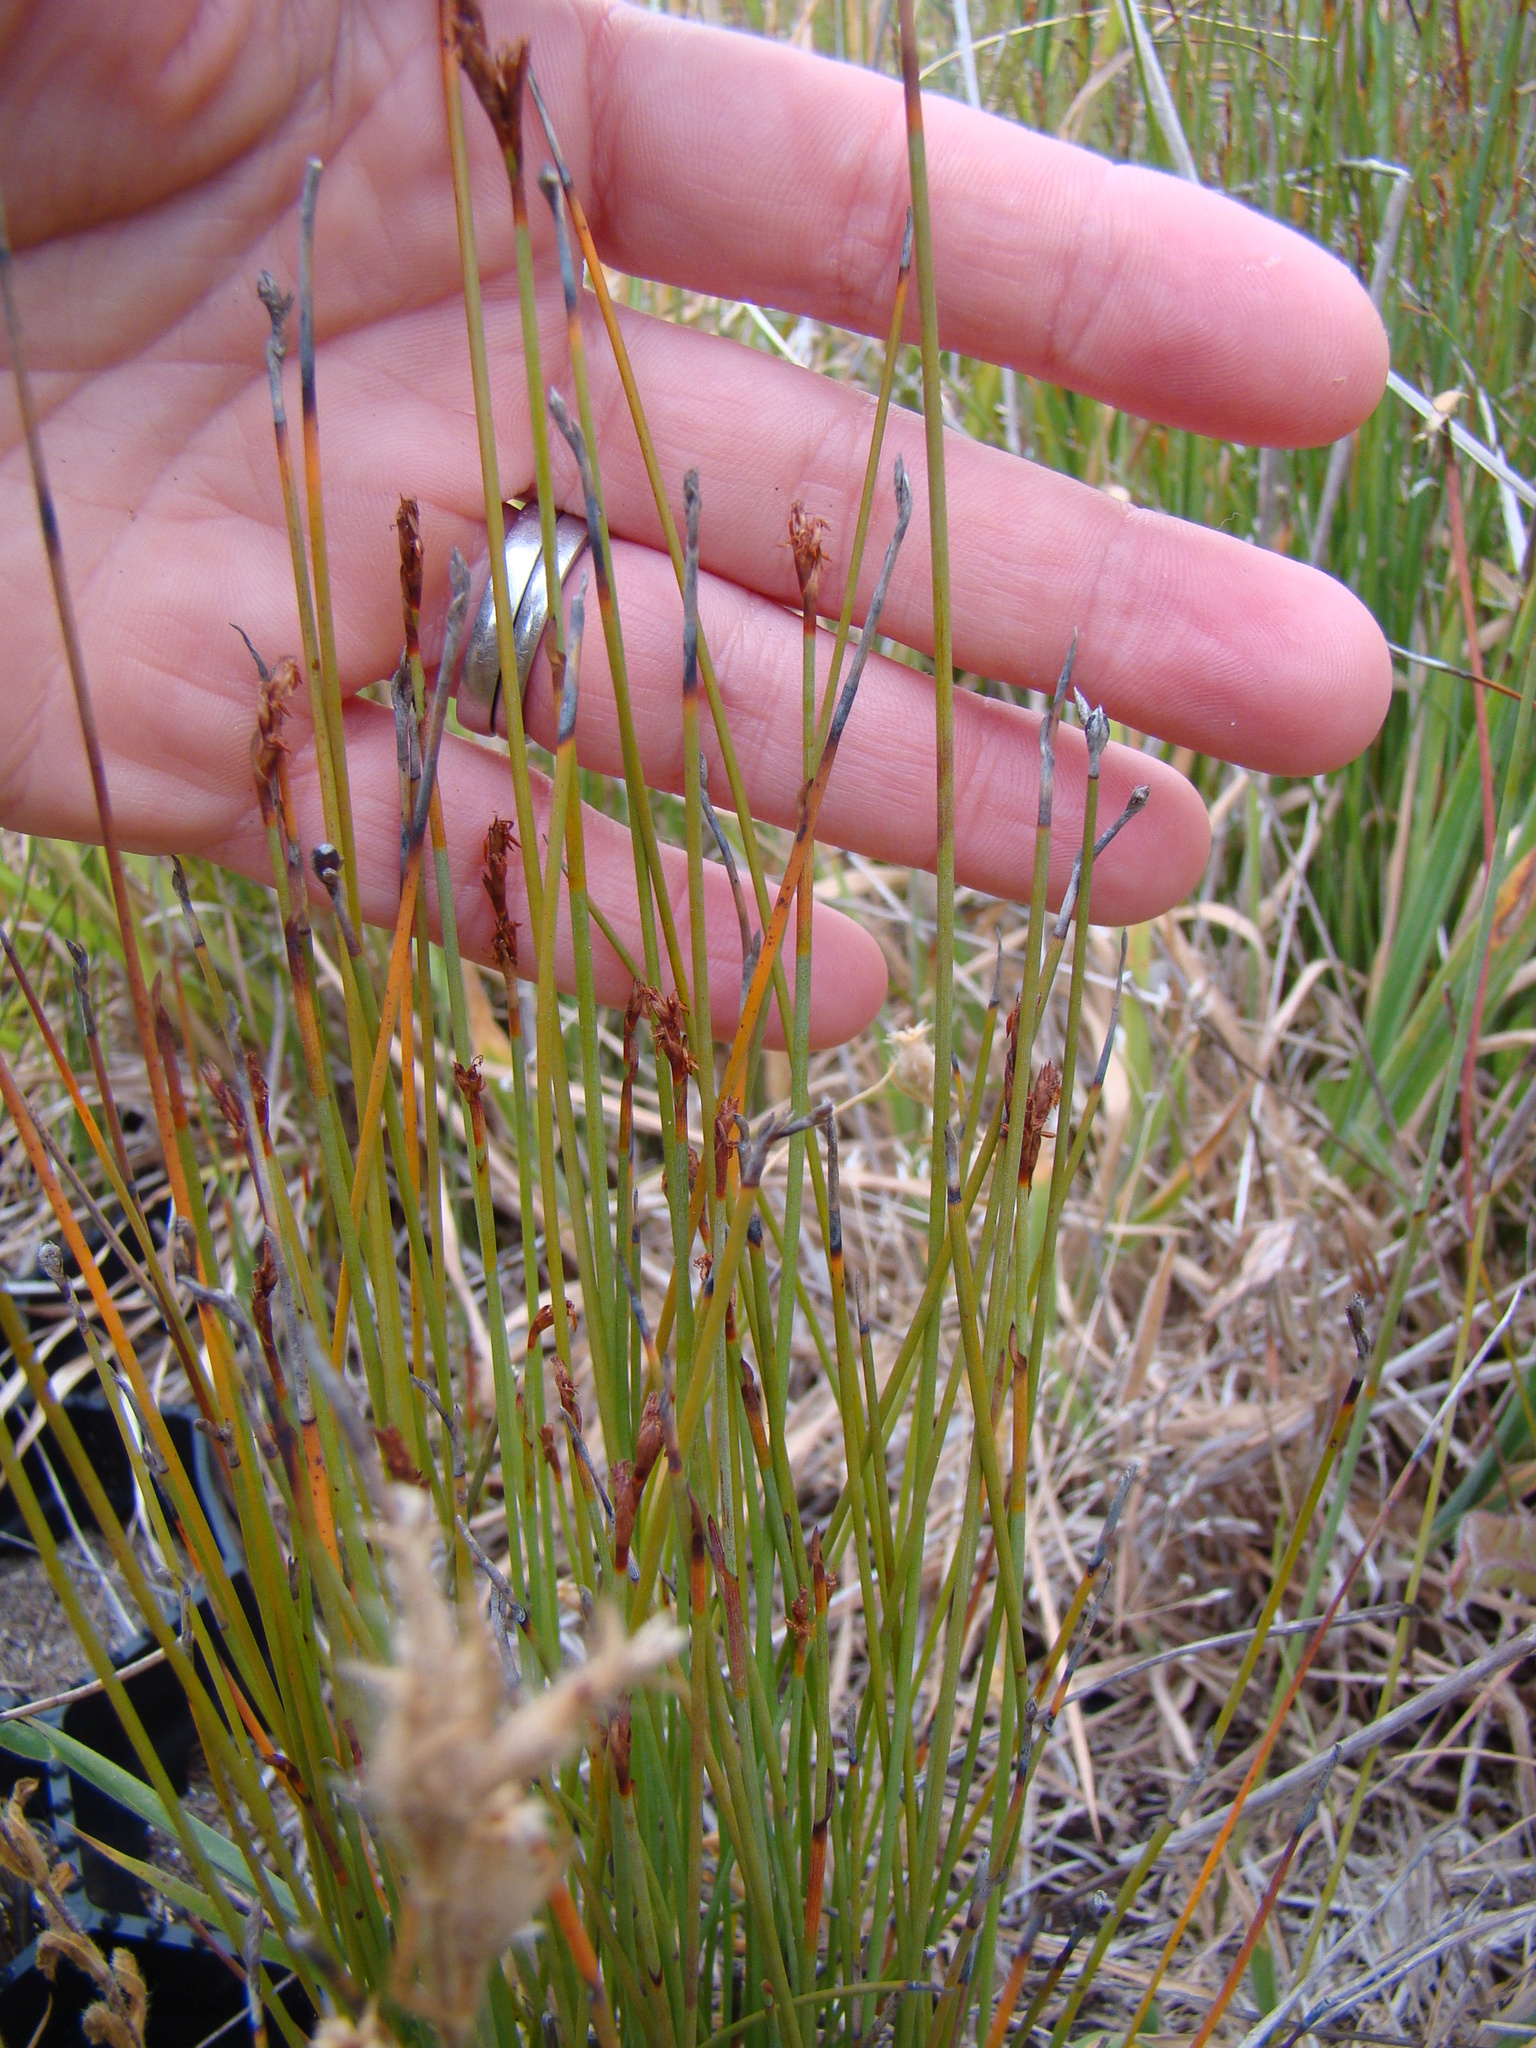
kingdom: Plantae
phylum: Tracheophyta
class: Liliopsida
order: Poales
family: Restionaceae
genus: Apodasmia
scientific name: Apodasmia similis
